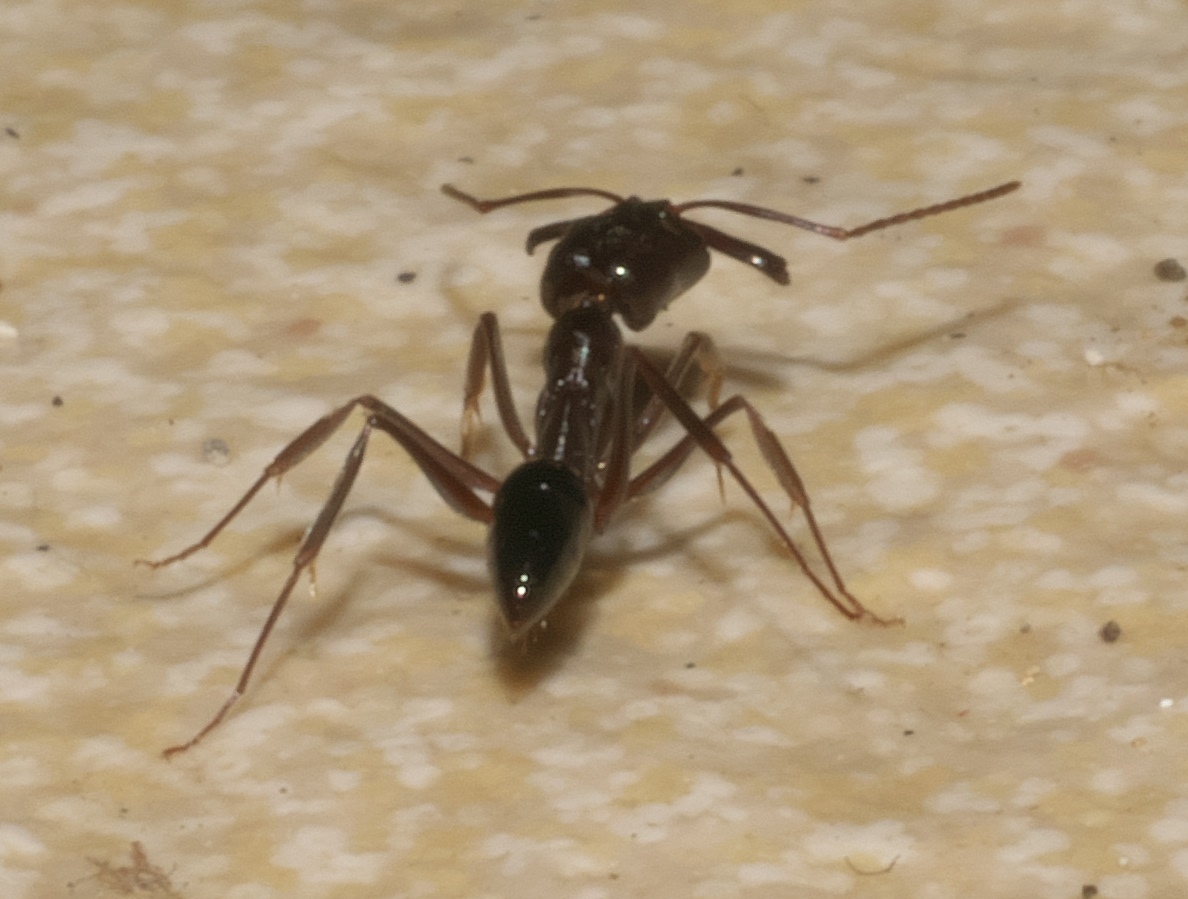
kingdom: Animalia
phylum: Arthropoda
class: Insecta
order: Hymenoptera
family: Formicidae
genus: Odontomachus
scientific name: Odontomachus simillimus
